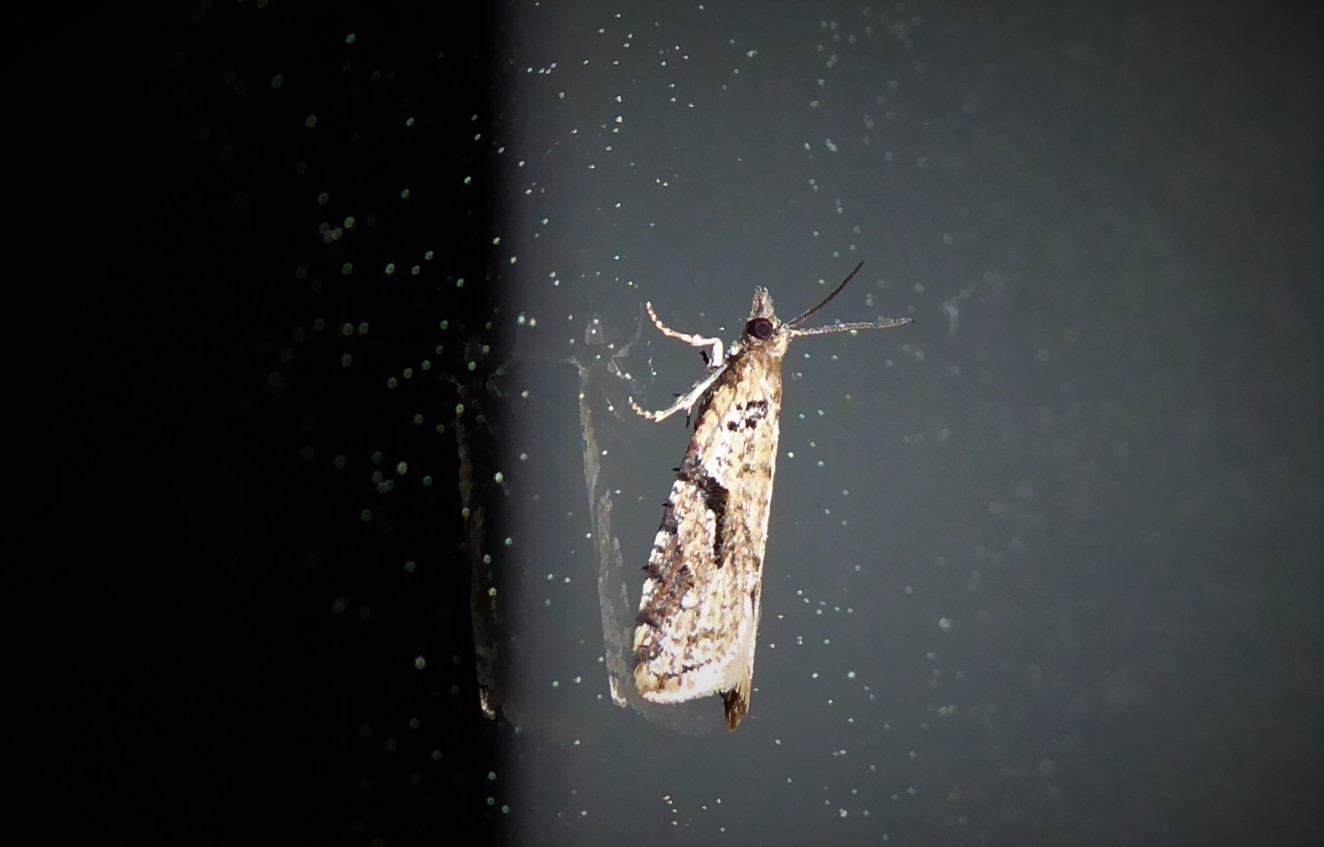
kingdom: Animalia
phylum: Arthropoda
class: Insecta
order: Lepidoptera
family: Tortricidae
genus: Capua
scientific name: Capua semiferana
